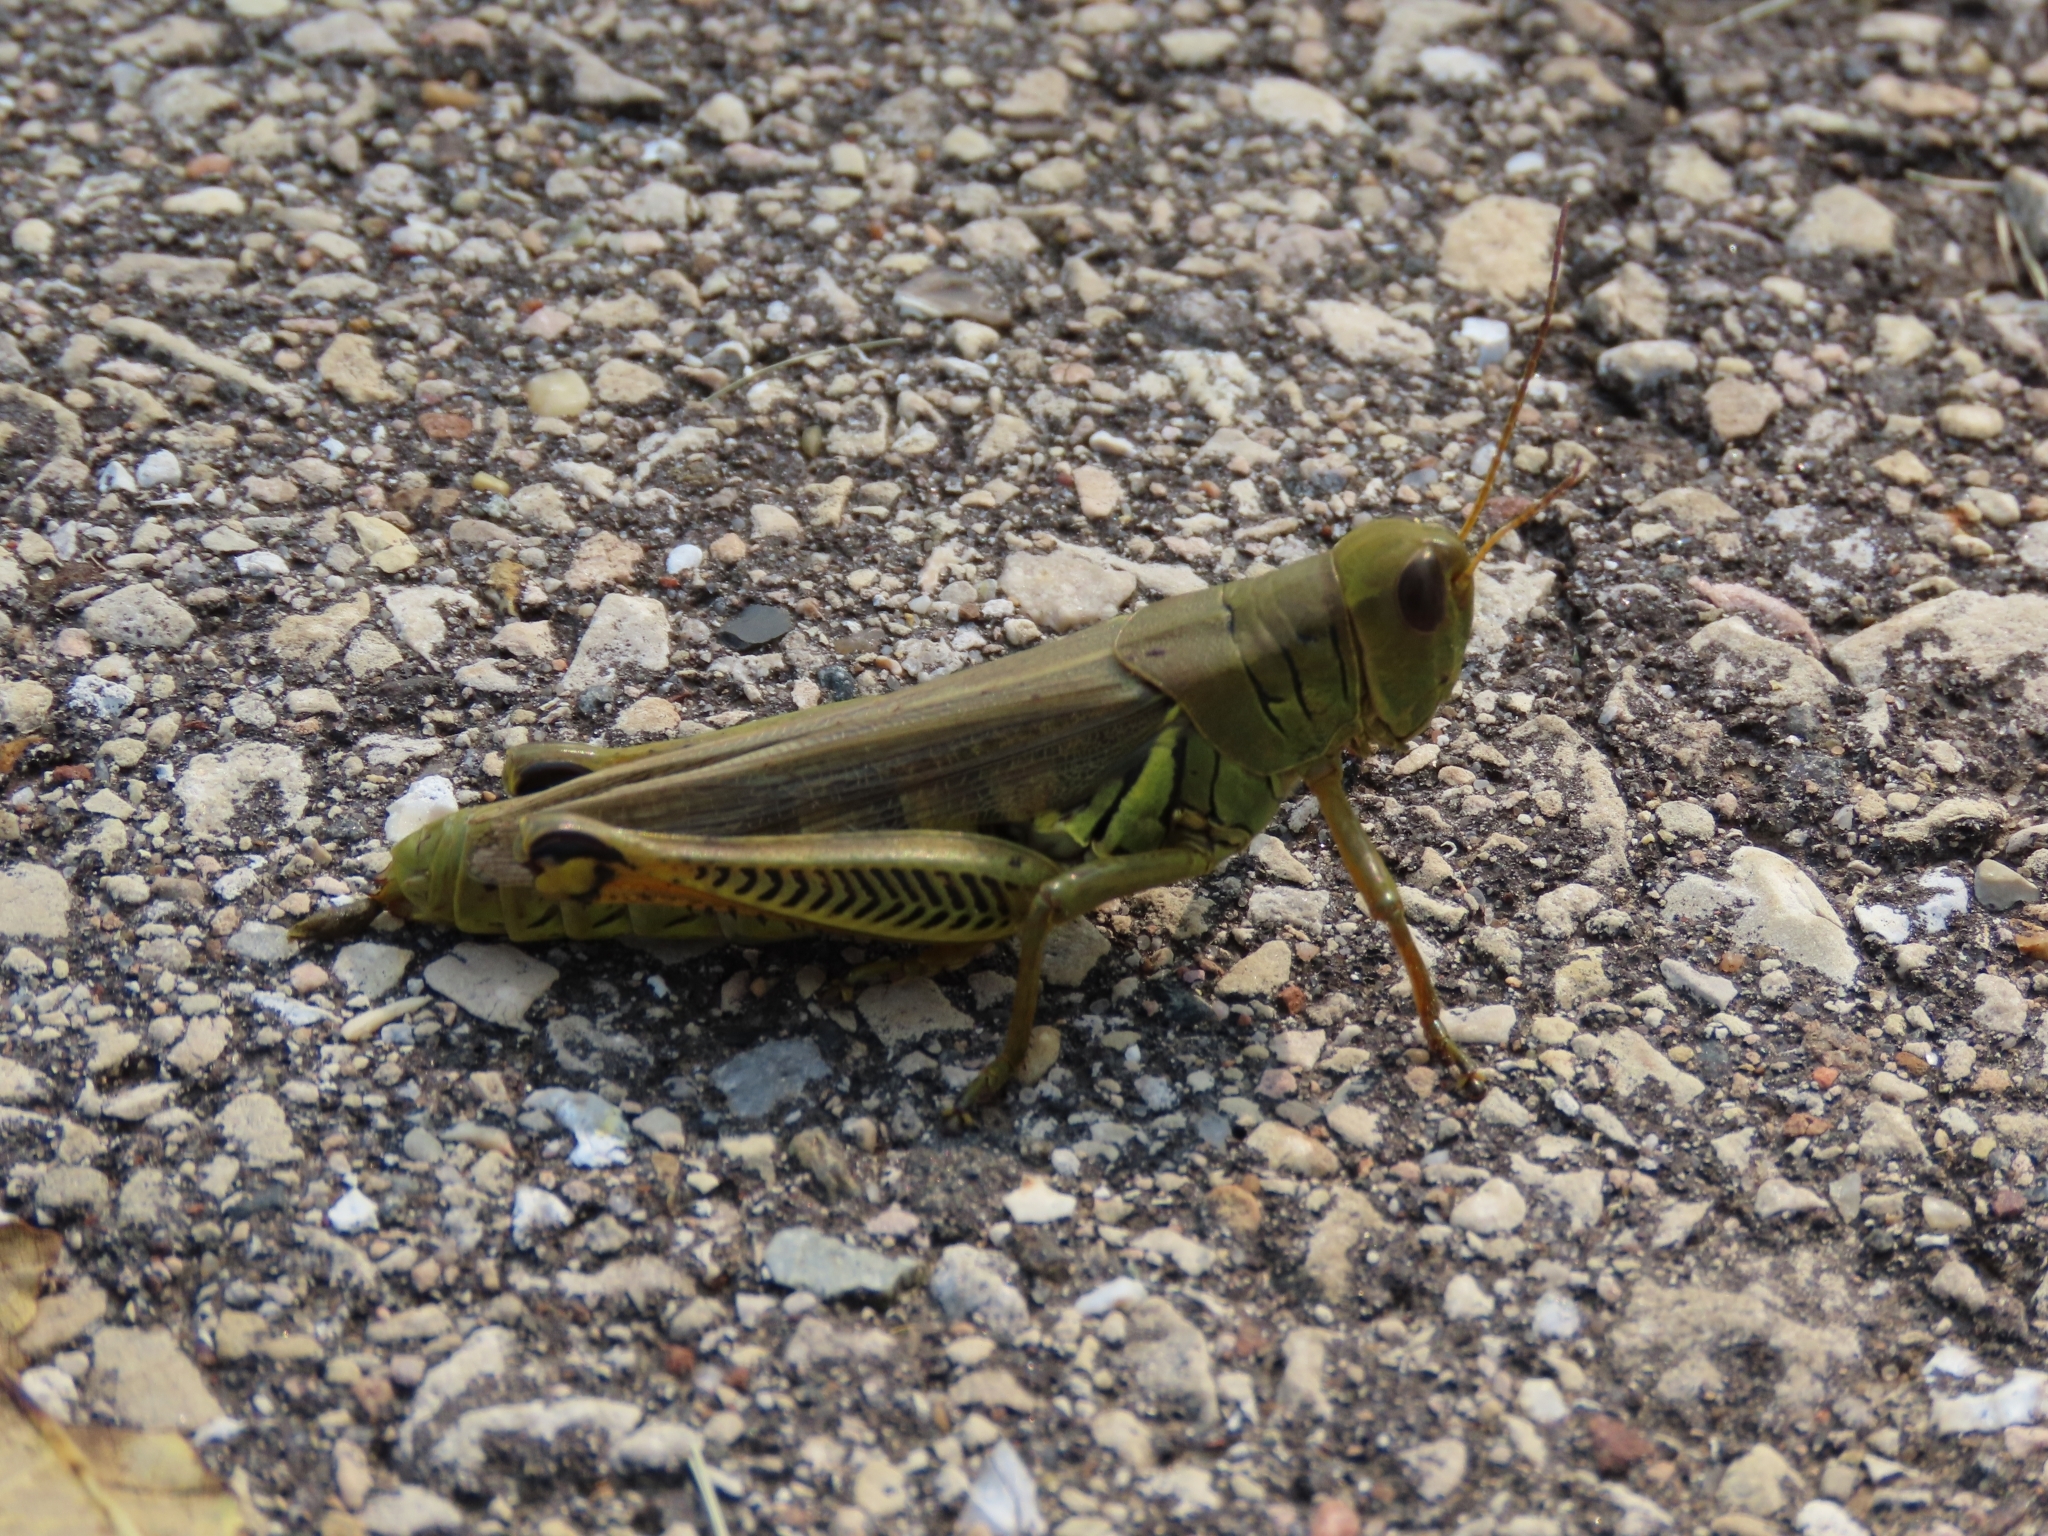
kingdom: Animalia
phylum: Arthropoda
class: Insecta
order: Orthoptera
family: Acrididae
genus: Melanoplus
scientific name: Melanoplus differentialis
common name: Differential grasshopper
